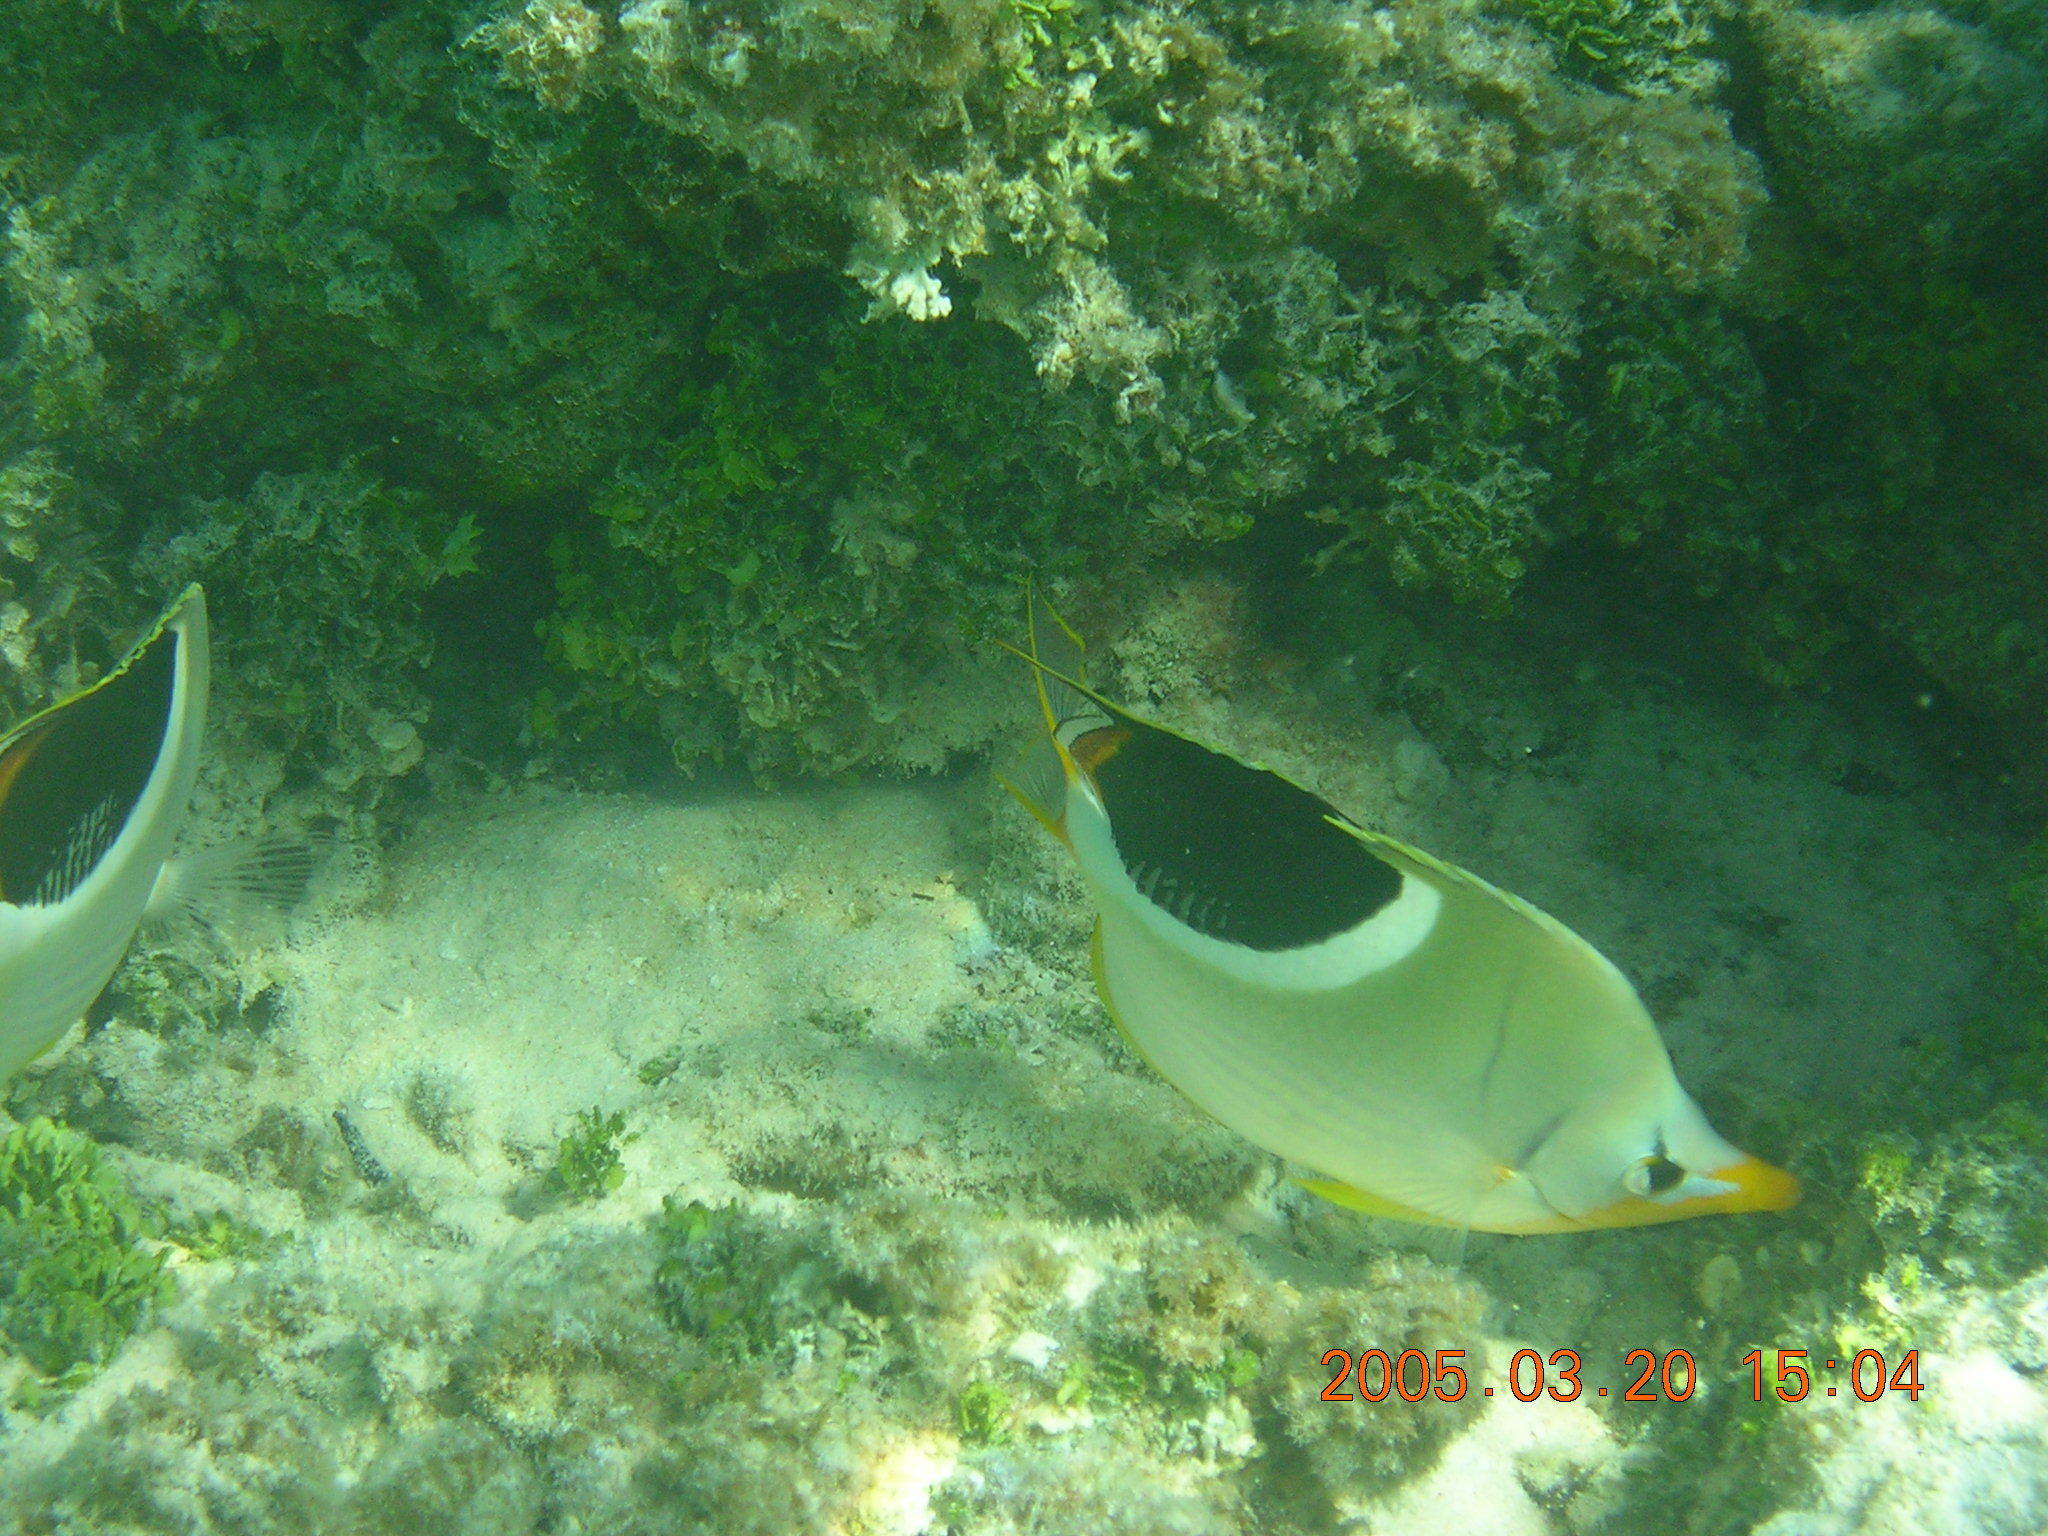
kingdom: Animalia
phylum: Chordata
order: Perciformes
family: Chaetodontidae
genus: Chaetodon
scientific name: Chaetodon ephippium
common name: Saddled butterflyfish
